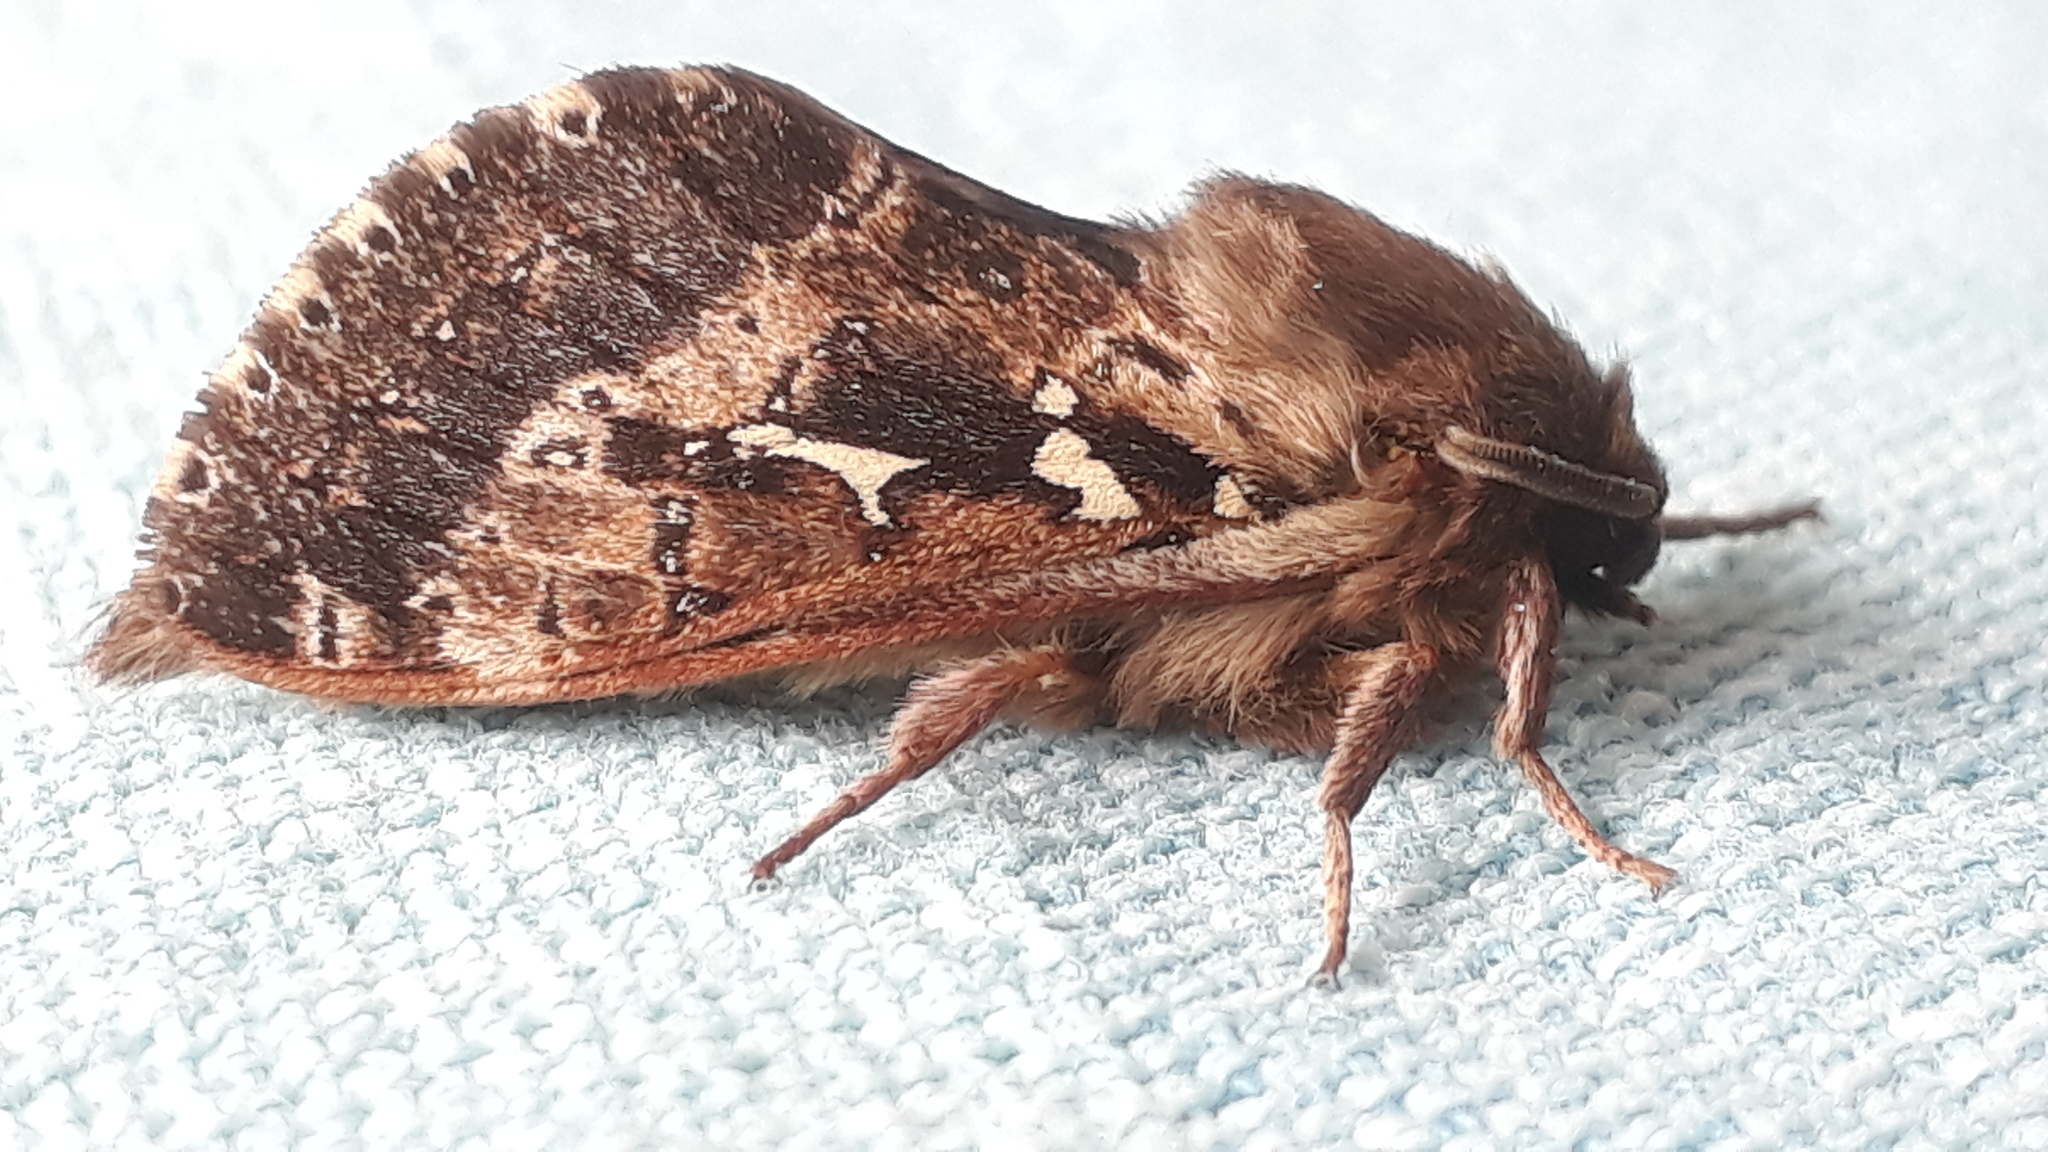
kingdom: Animalia
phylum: Arthropoda
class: Insecta
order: Lepidoptera
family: Hepialidae
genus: Wiseana
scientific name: Wiseana cervinata
